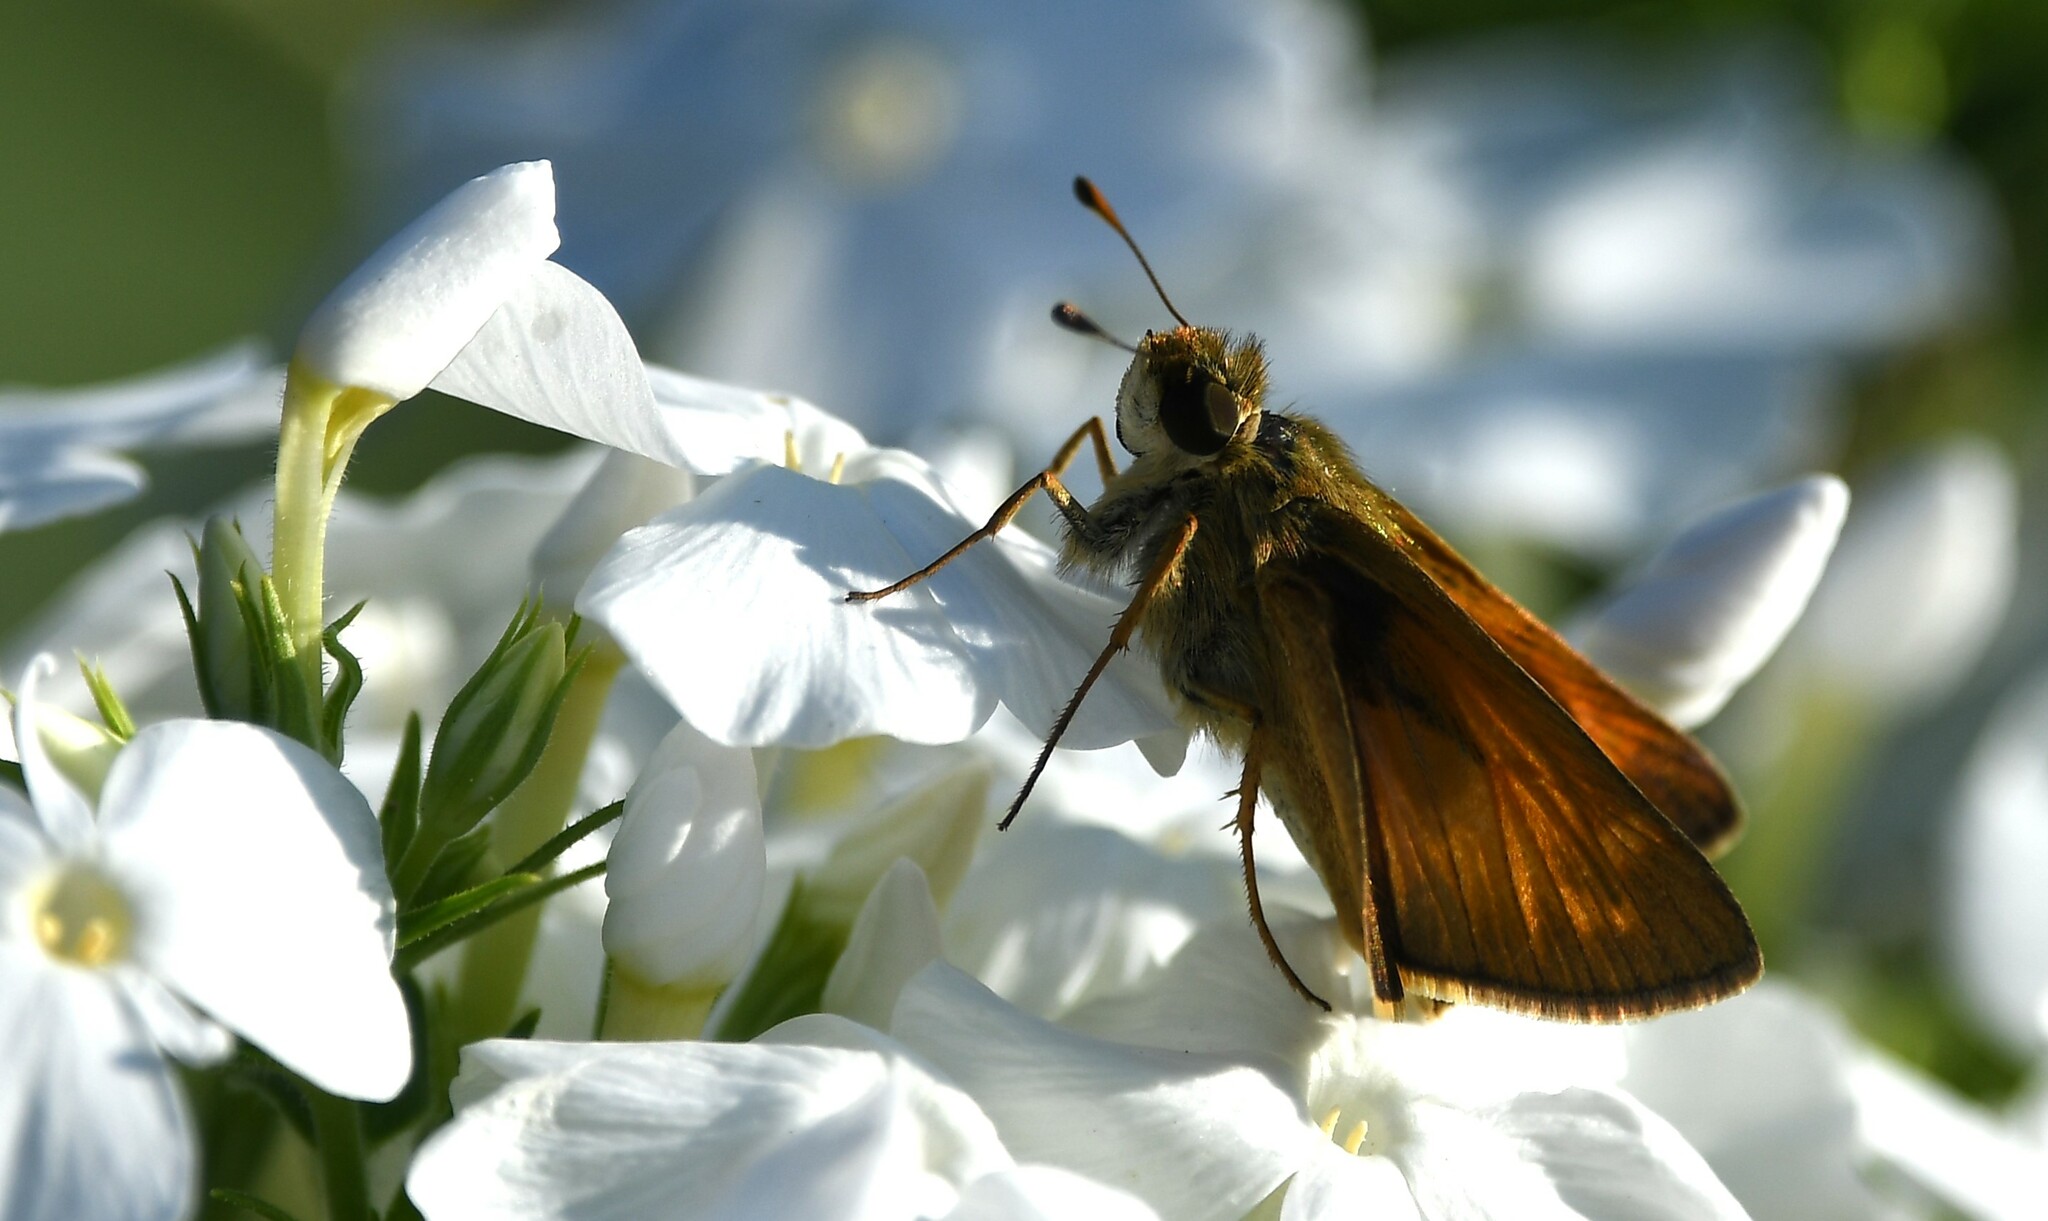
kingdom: Animalia
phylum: Arthropoda
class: Insecta
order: Lepidoptera
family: Hesperiidae
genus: Atalopedes
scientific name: Atalopedes
